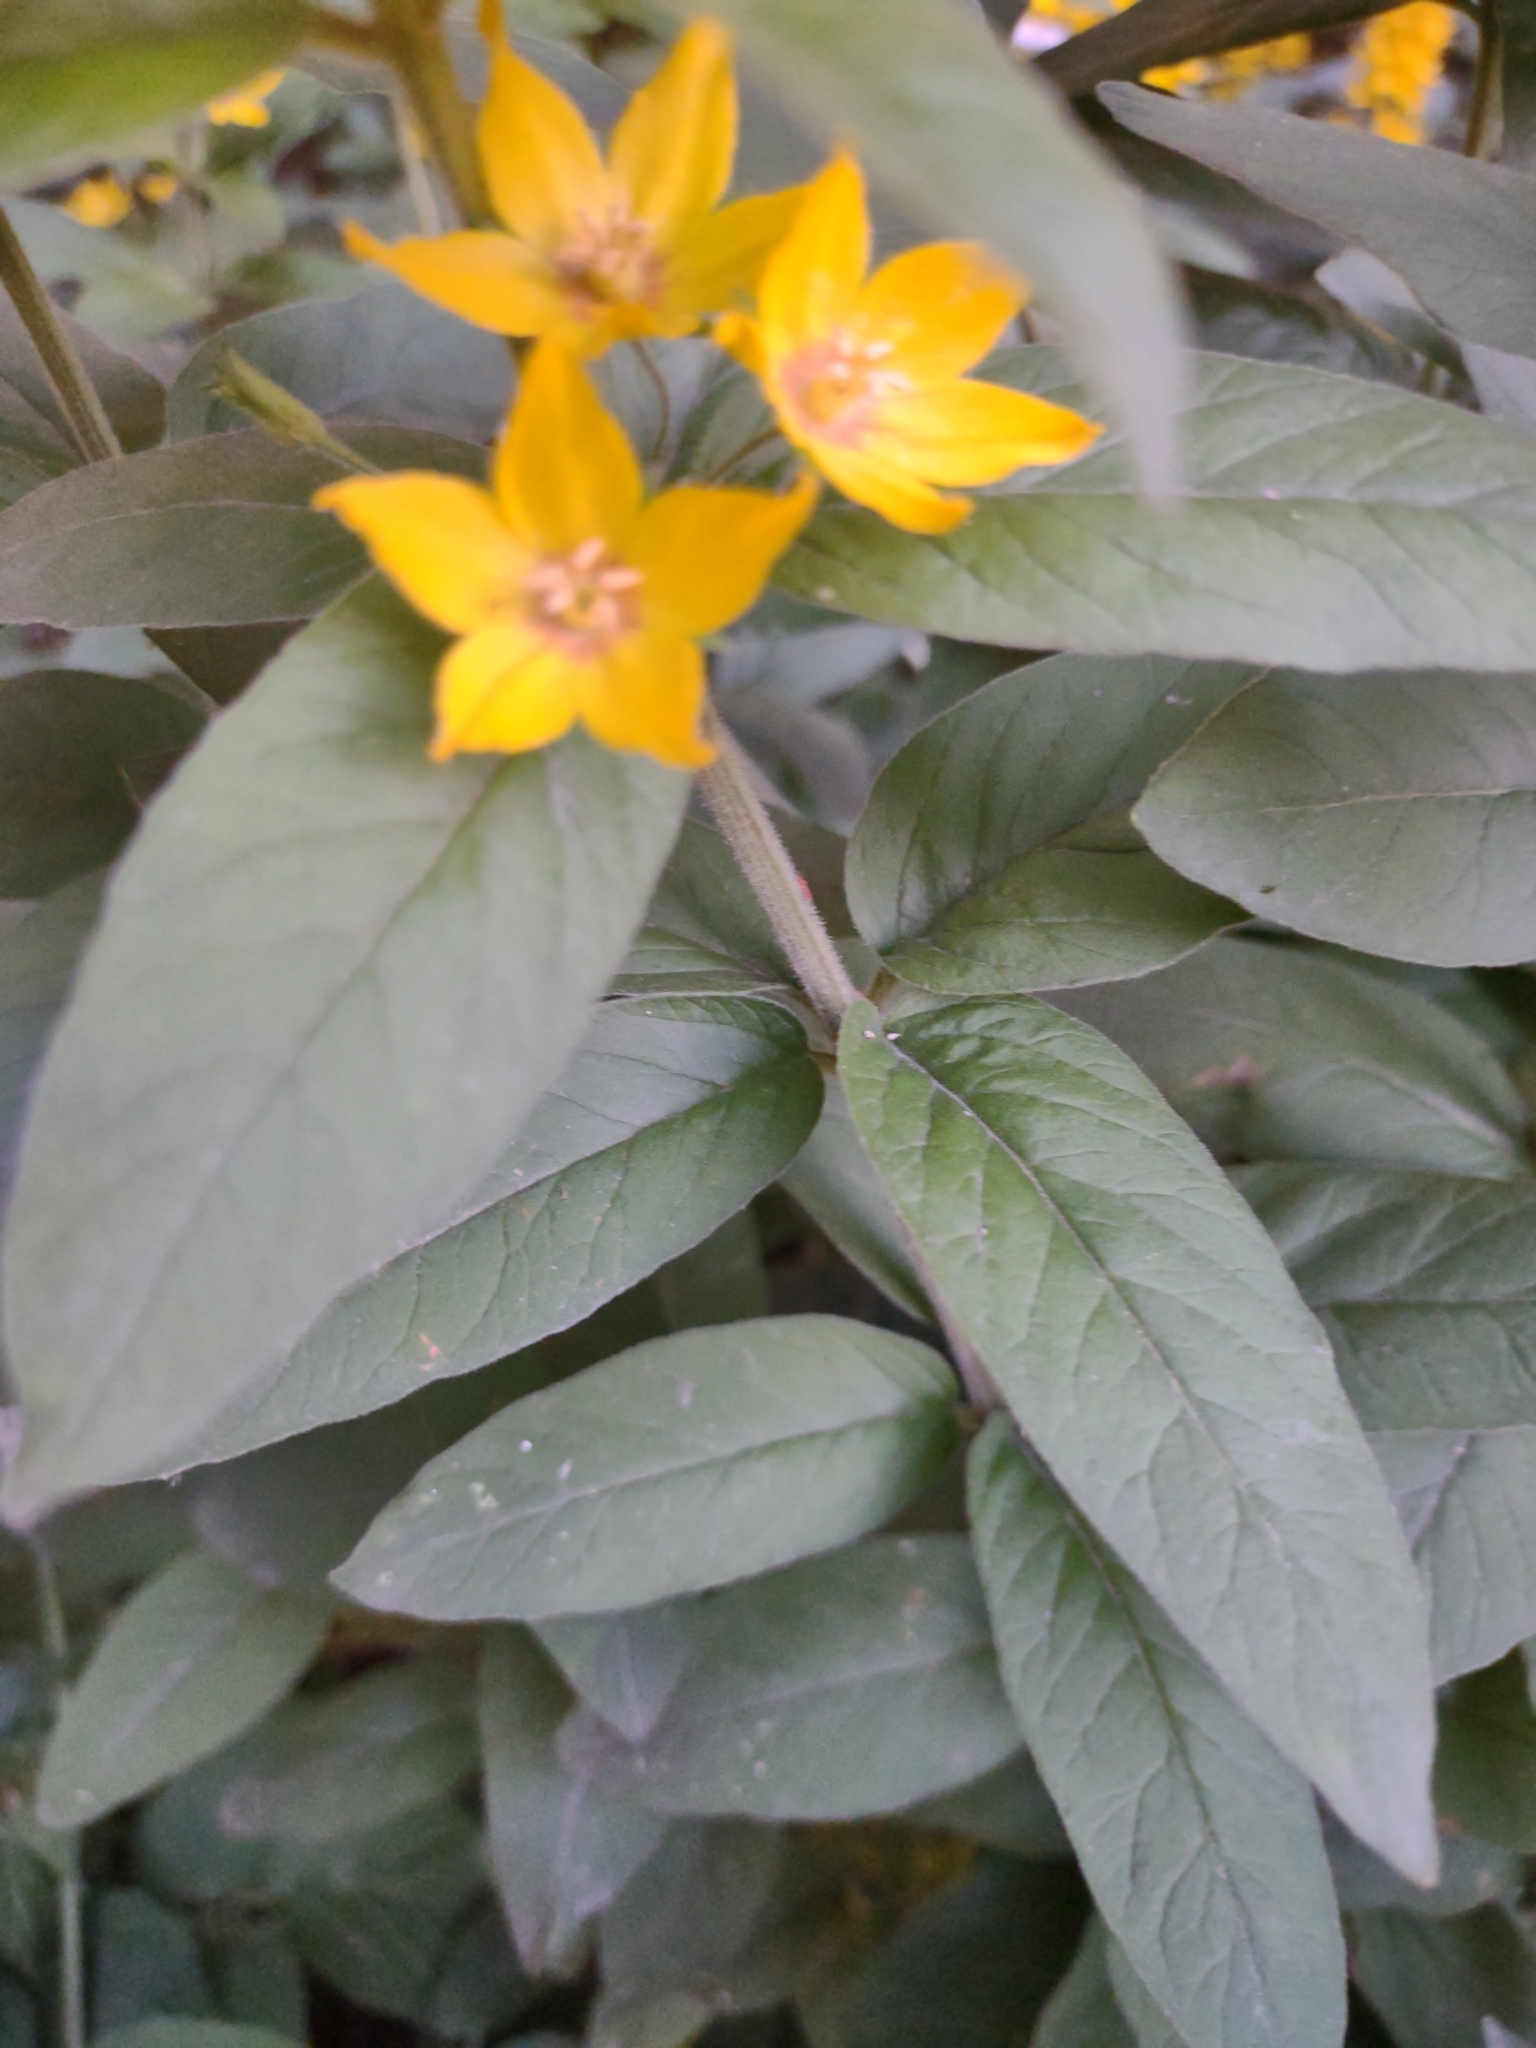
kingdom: Plantae
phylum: Tracheophyta
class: Magnoliopsida
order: Ericales
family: Primulaceae
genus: Lysimachia
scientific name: Lysimachia punctata
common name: Dotted loosestrife
